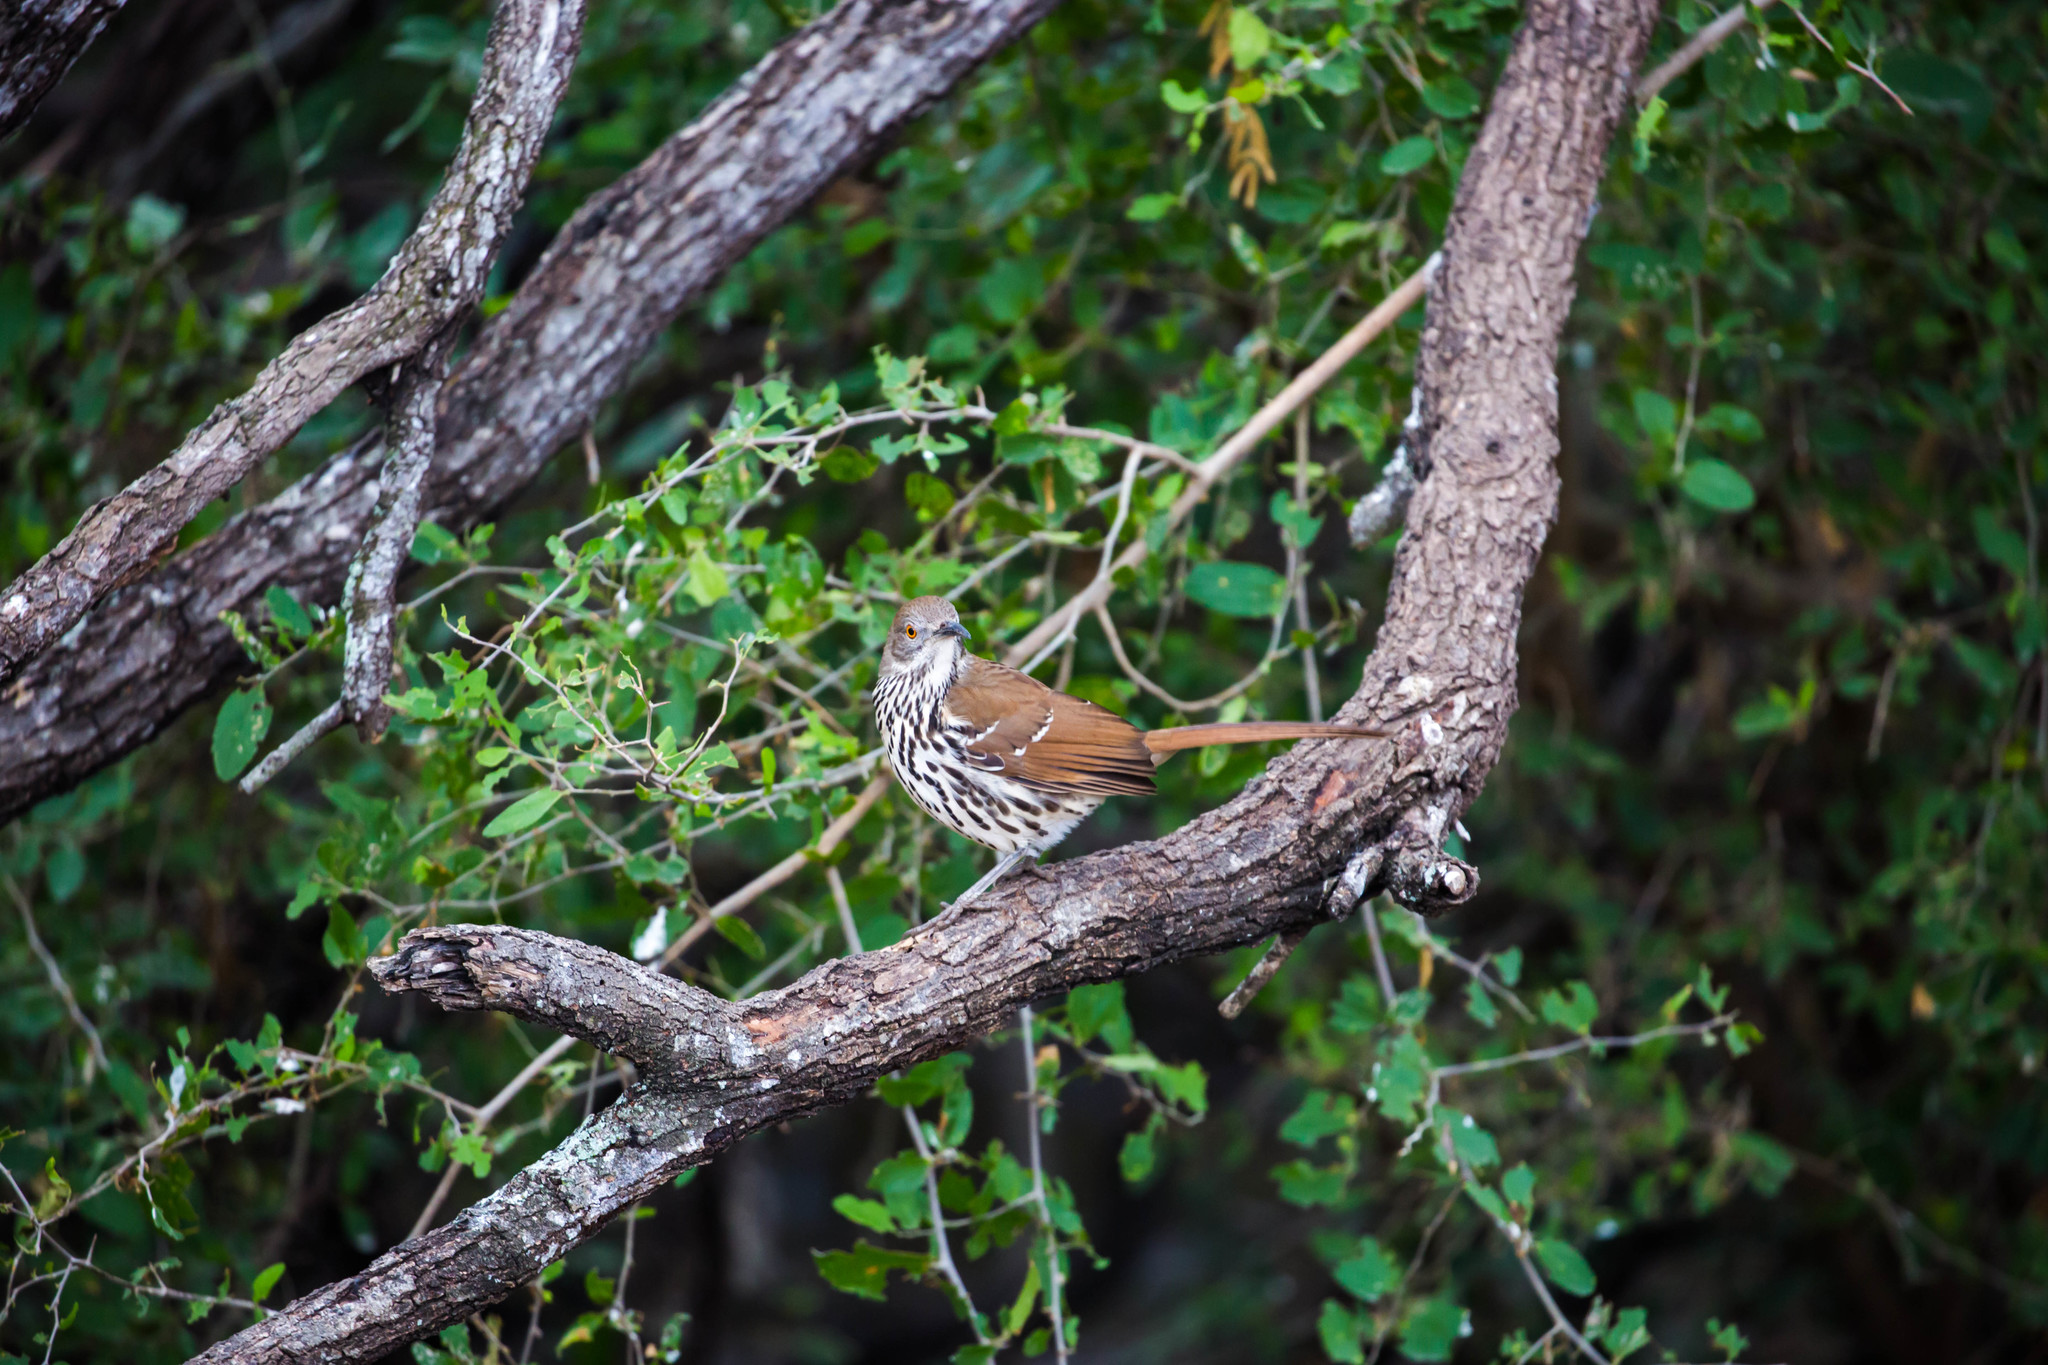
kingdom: Animalia
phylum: Chordata
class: Aves
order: Passeriformes
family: Mimidae
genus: Toxostoma
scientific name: Toxostoma longirostre
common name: Long-billed thrasher
